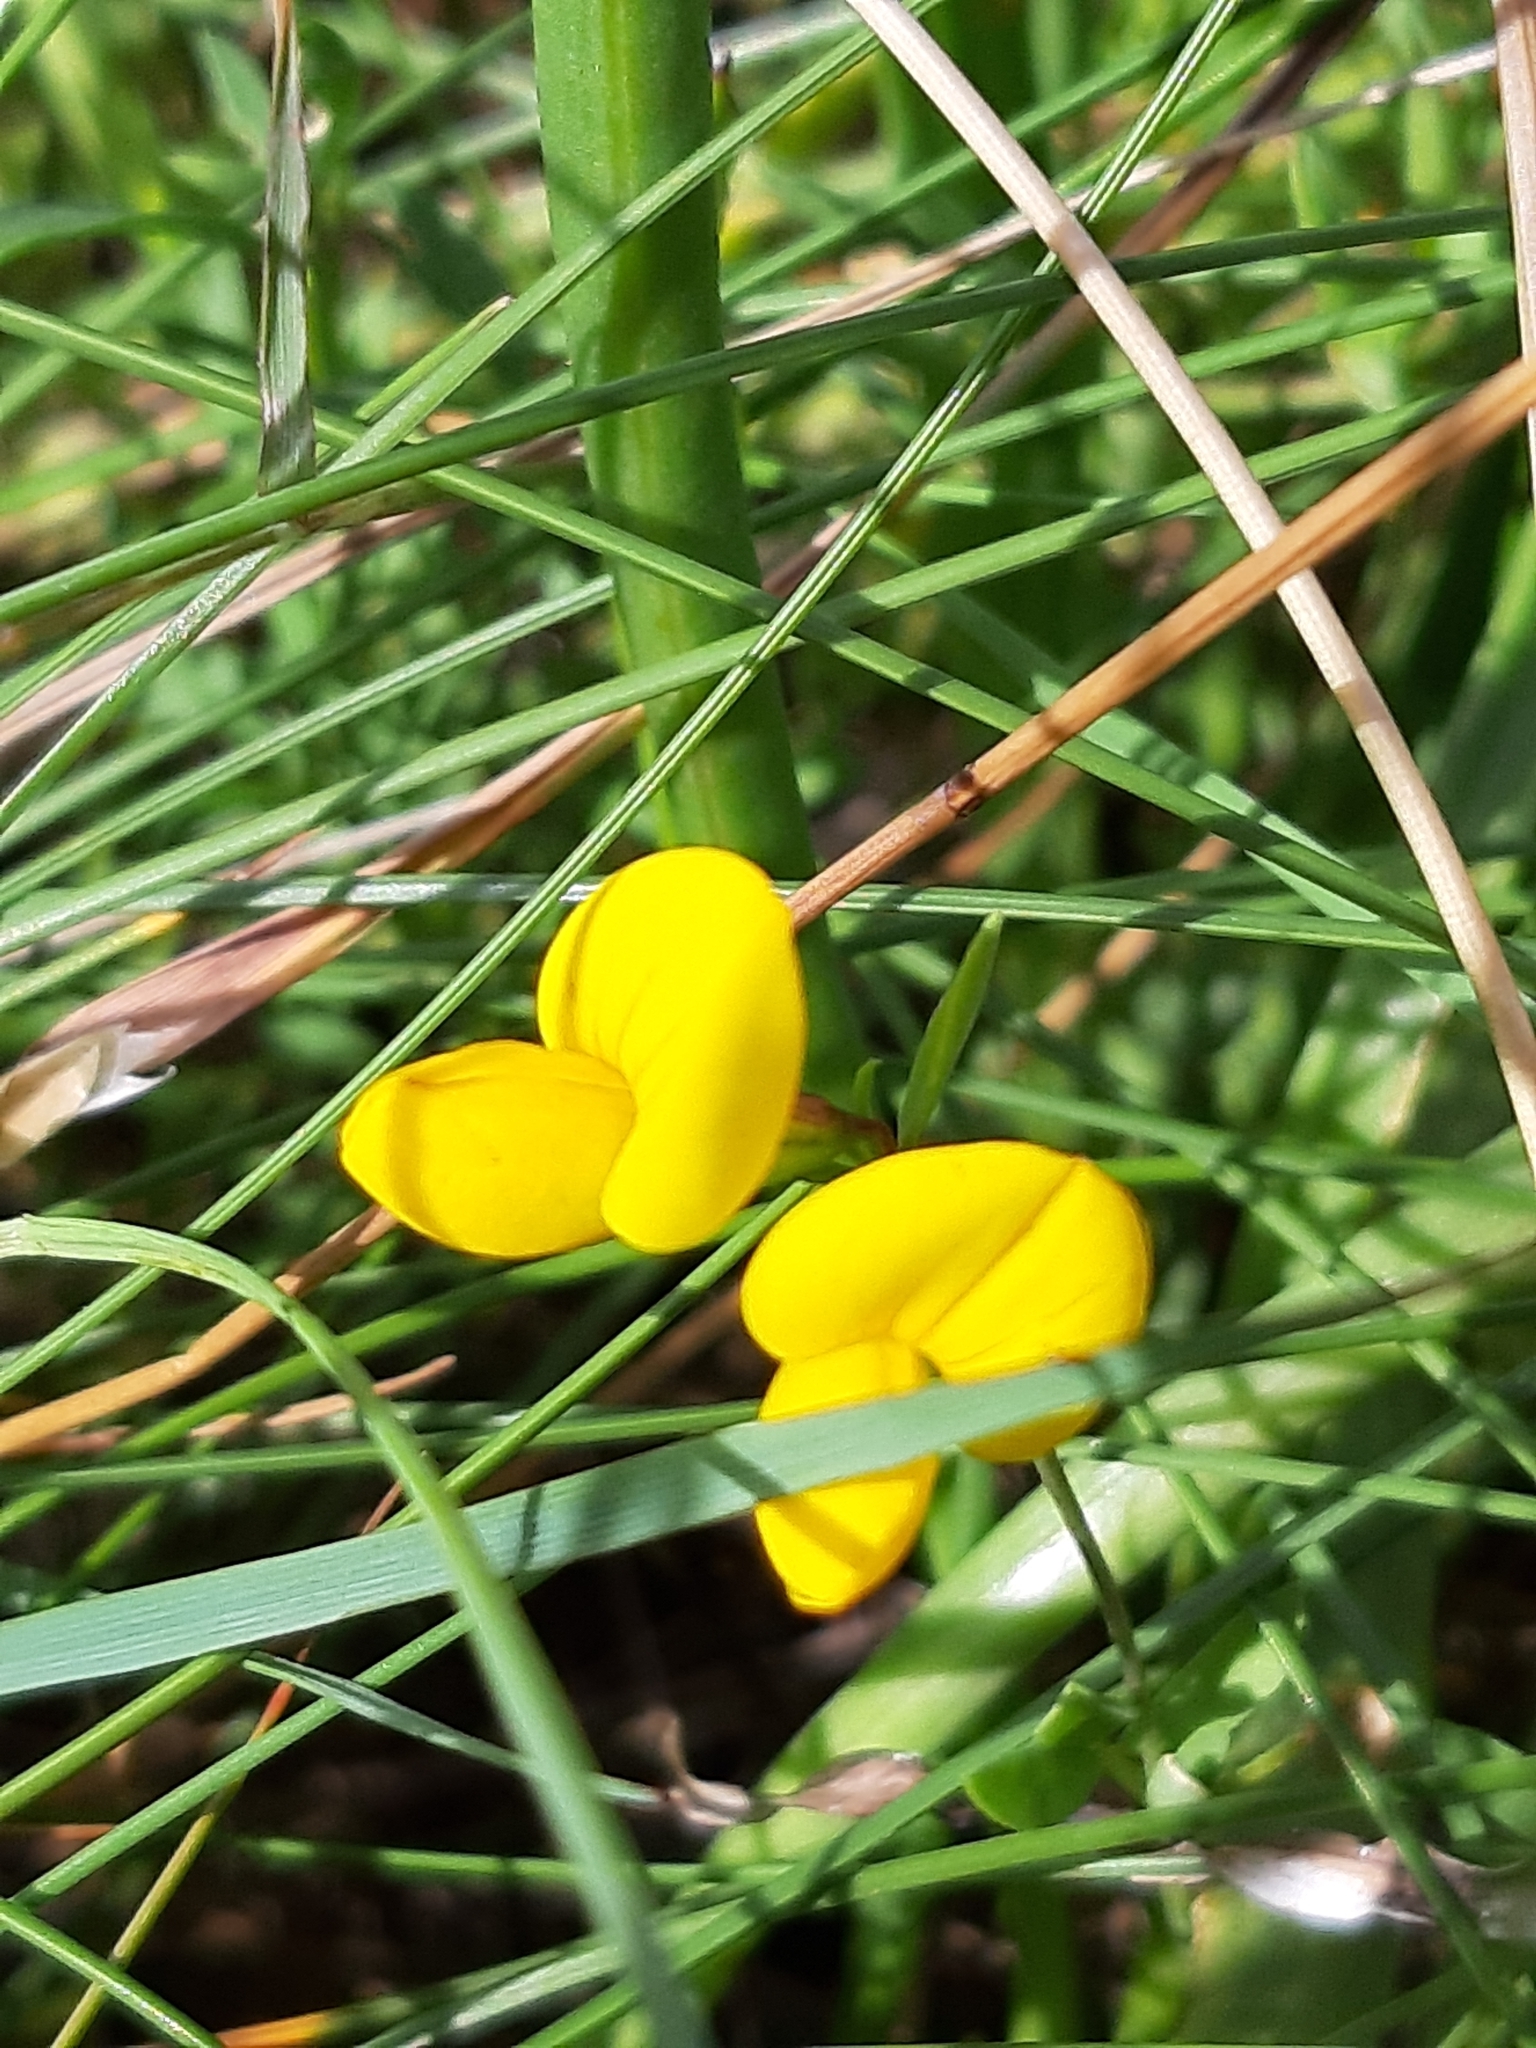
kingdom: Plantae
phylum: Tracheophyta
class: Magnoliopsida
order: Fabales
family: Fabaceae
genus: Lotus
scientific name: Lotus corniculatus
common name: Common bird's-foot-trefoil
